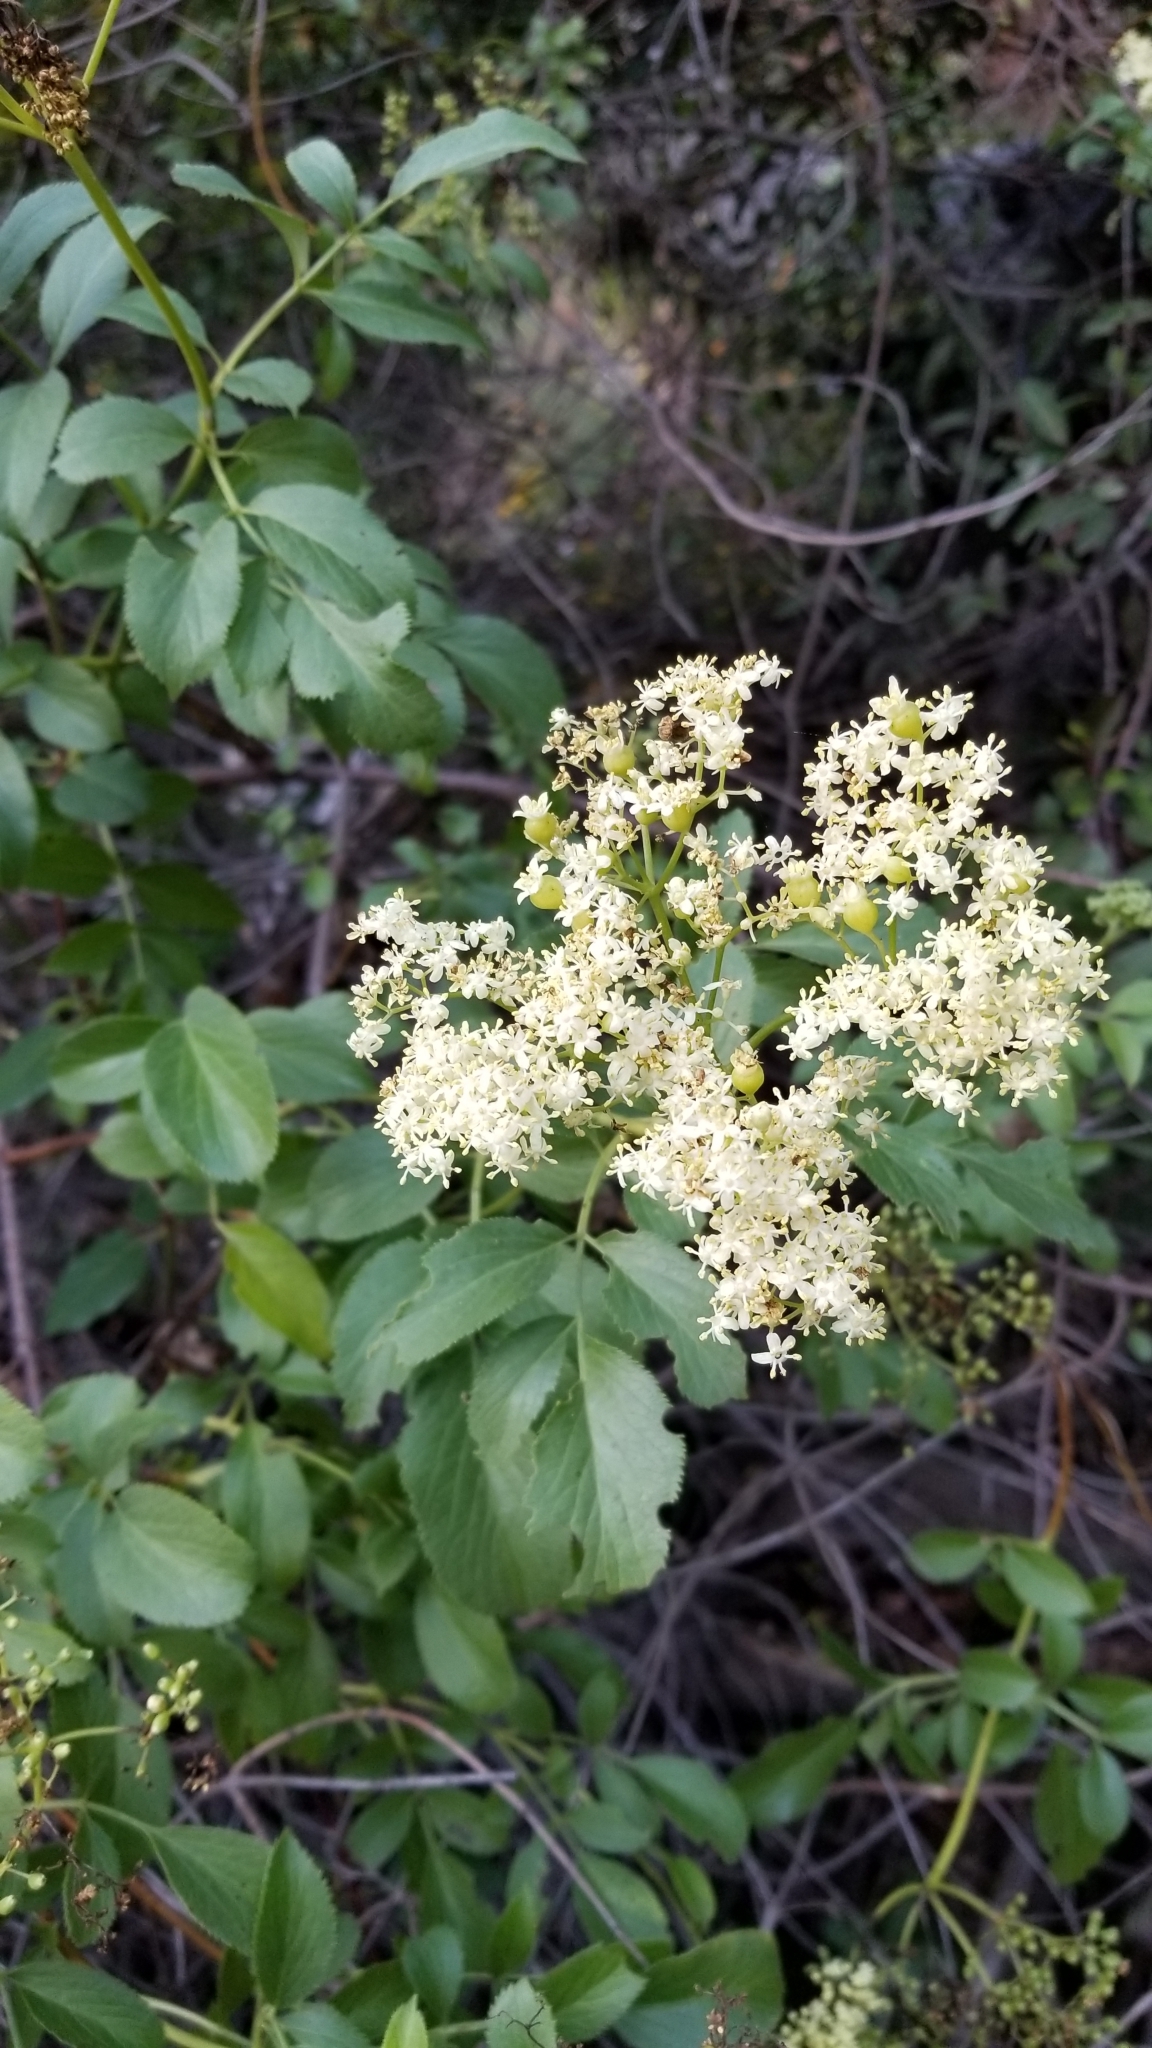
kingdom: Plantae
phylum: Tracheophyta
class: Magnoliopsida
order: Dipsacales
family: Viburnaceae
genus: Sambucus
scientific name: Sambucus cerulea
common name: Blue elder
